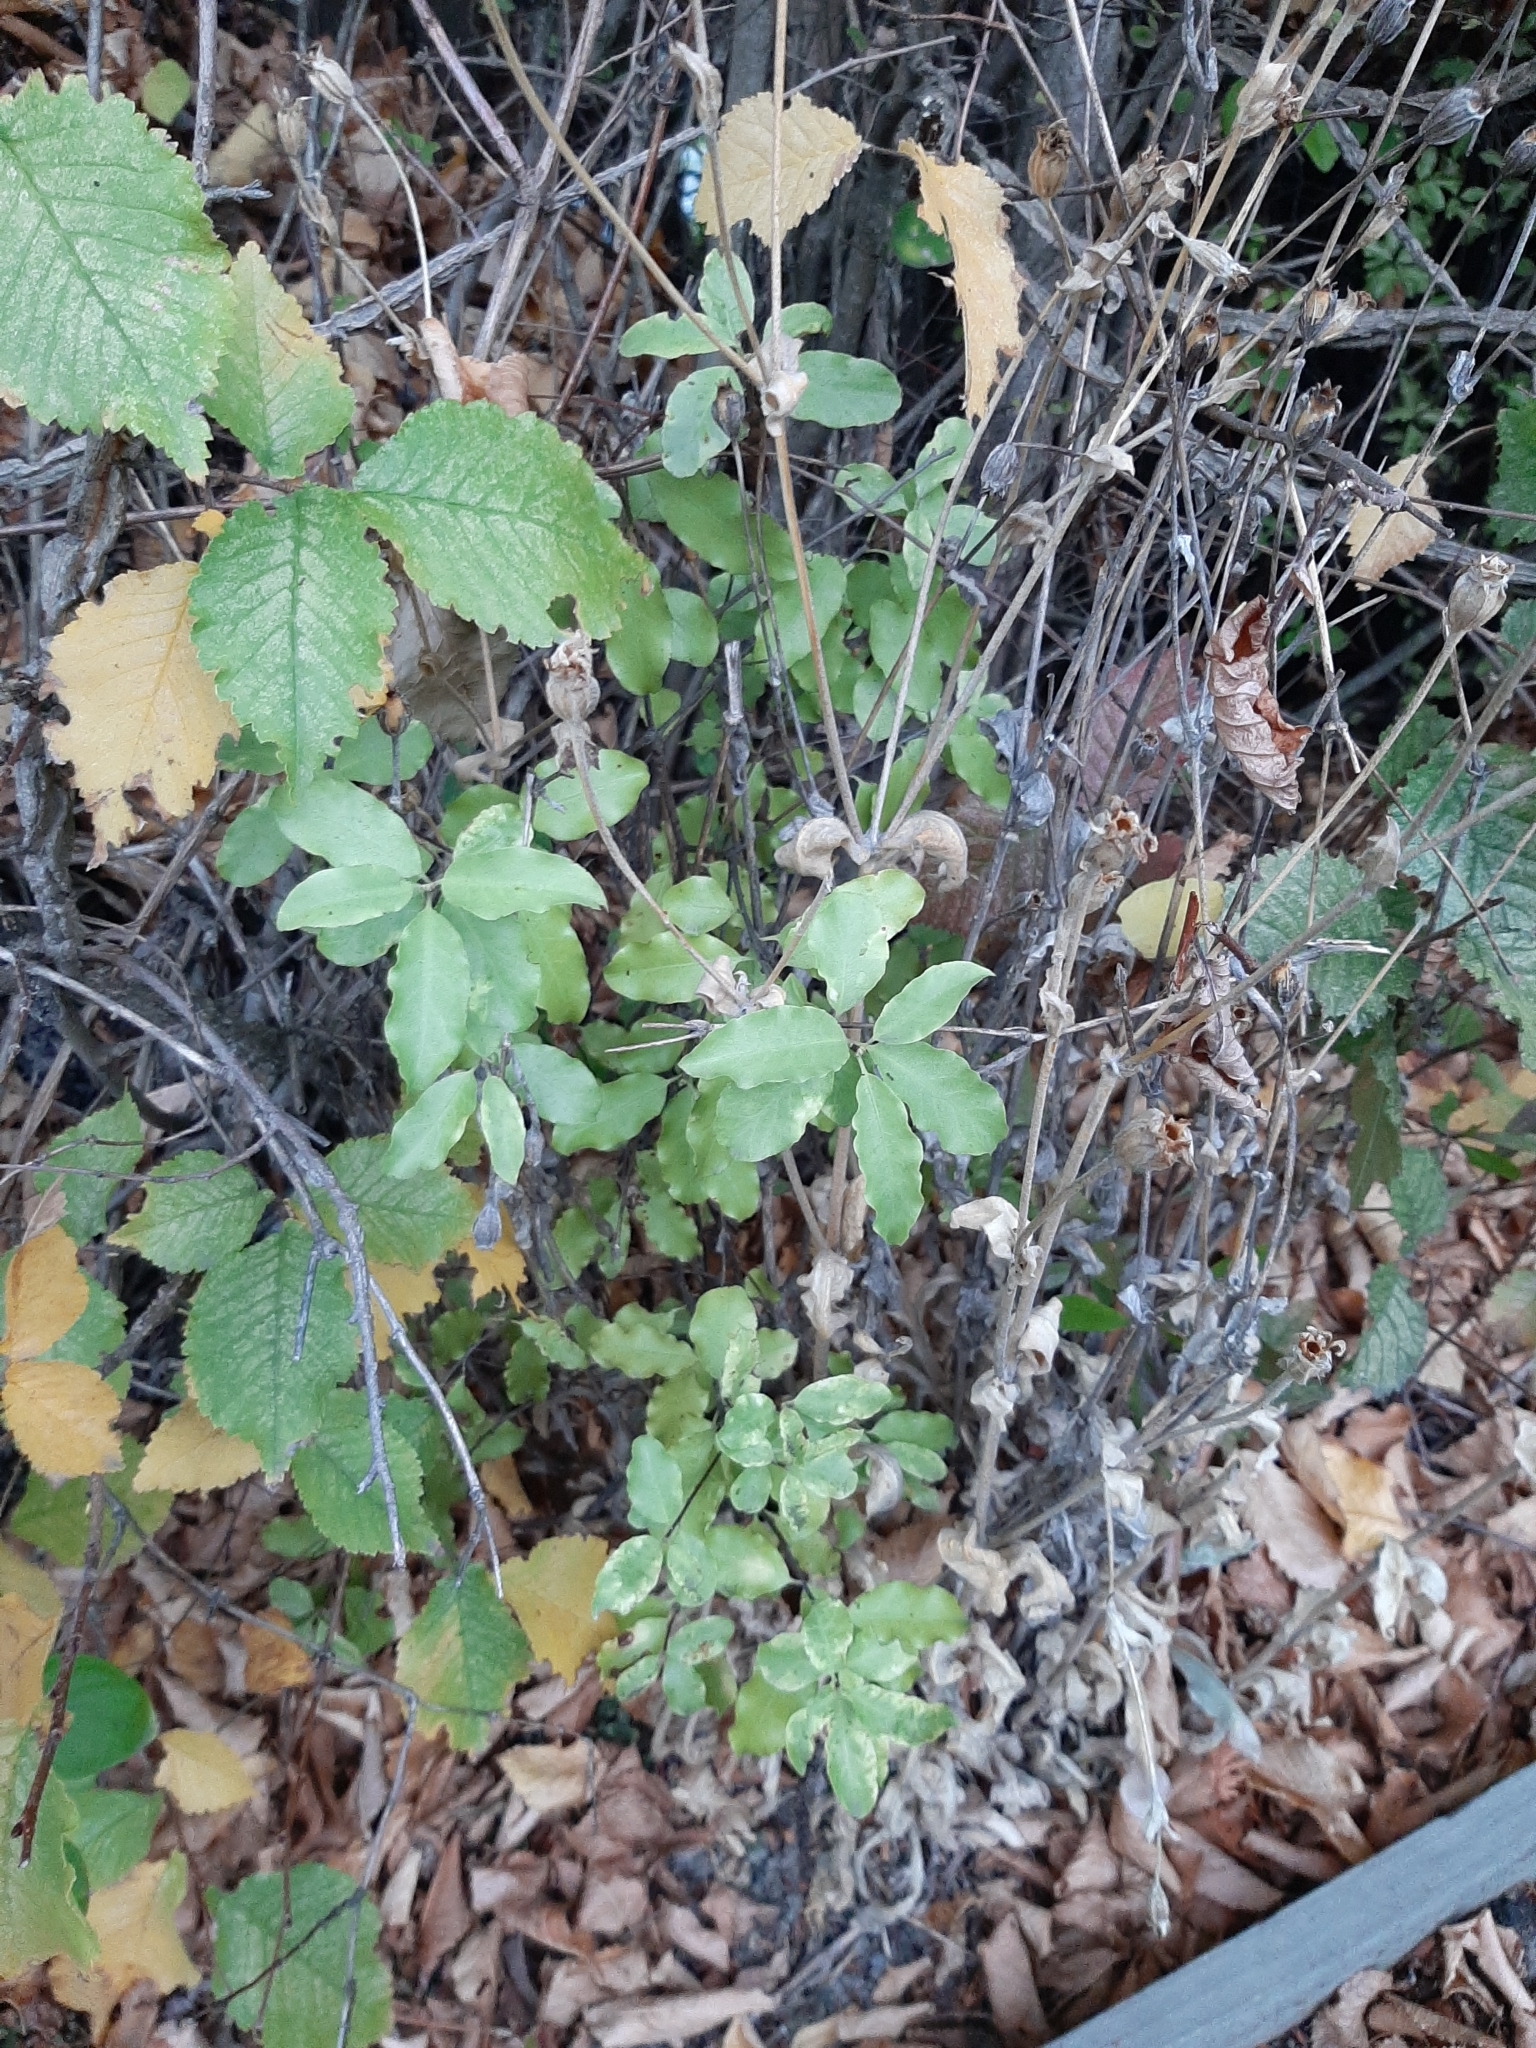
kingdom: Plantae
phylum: Tracheophyta
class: Magnoliopsida
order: Apiales
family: Pittosporaceae
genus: Pittosporum
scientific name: Pittosporum tenuifolium
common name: Kohuhu
